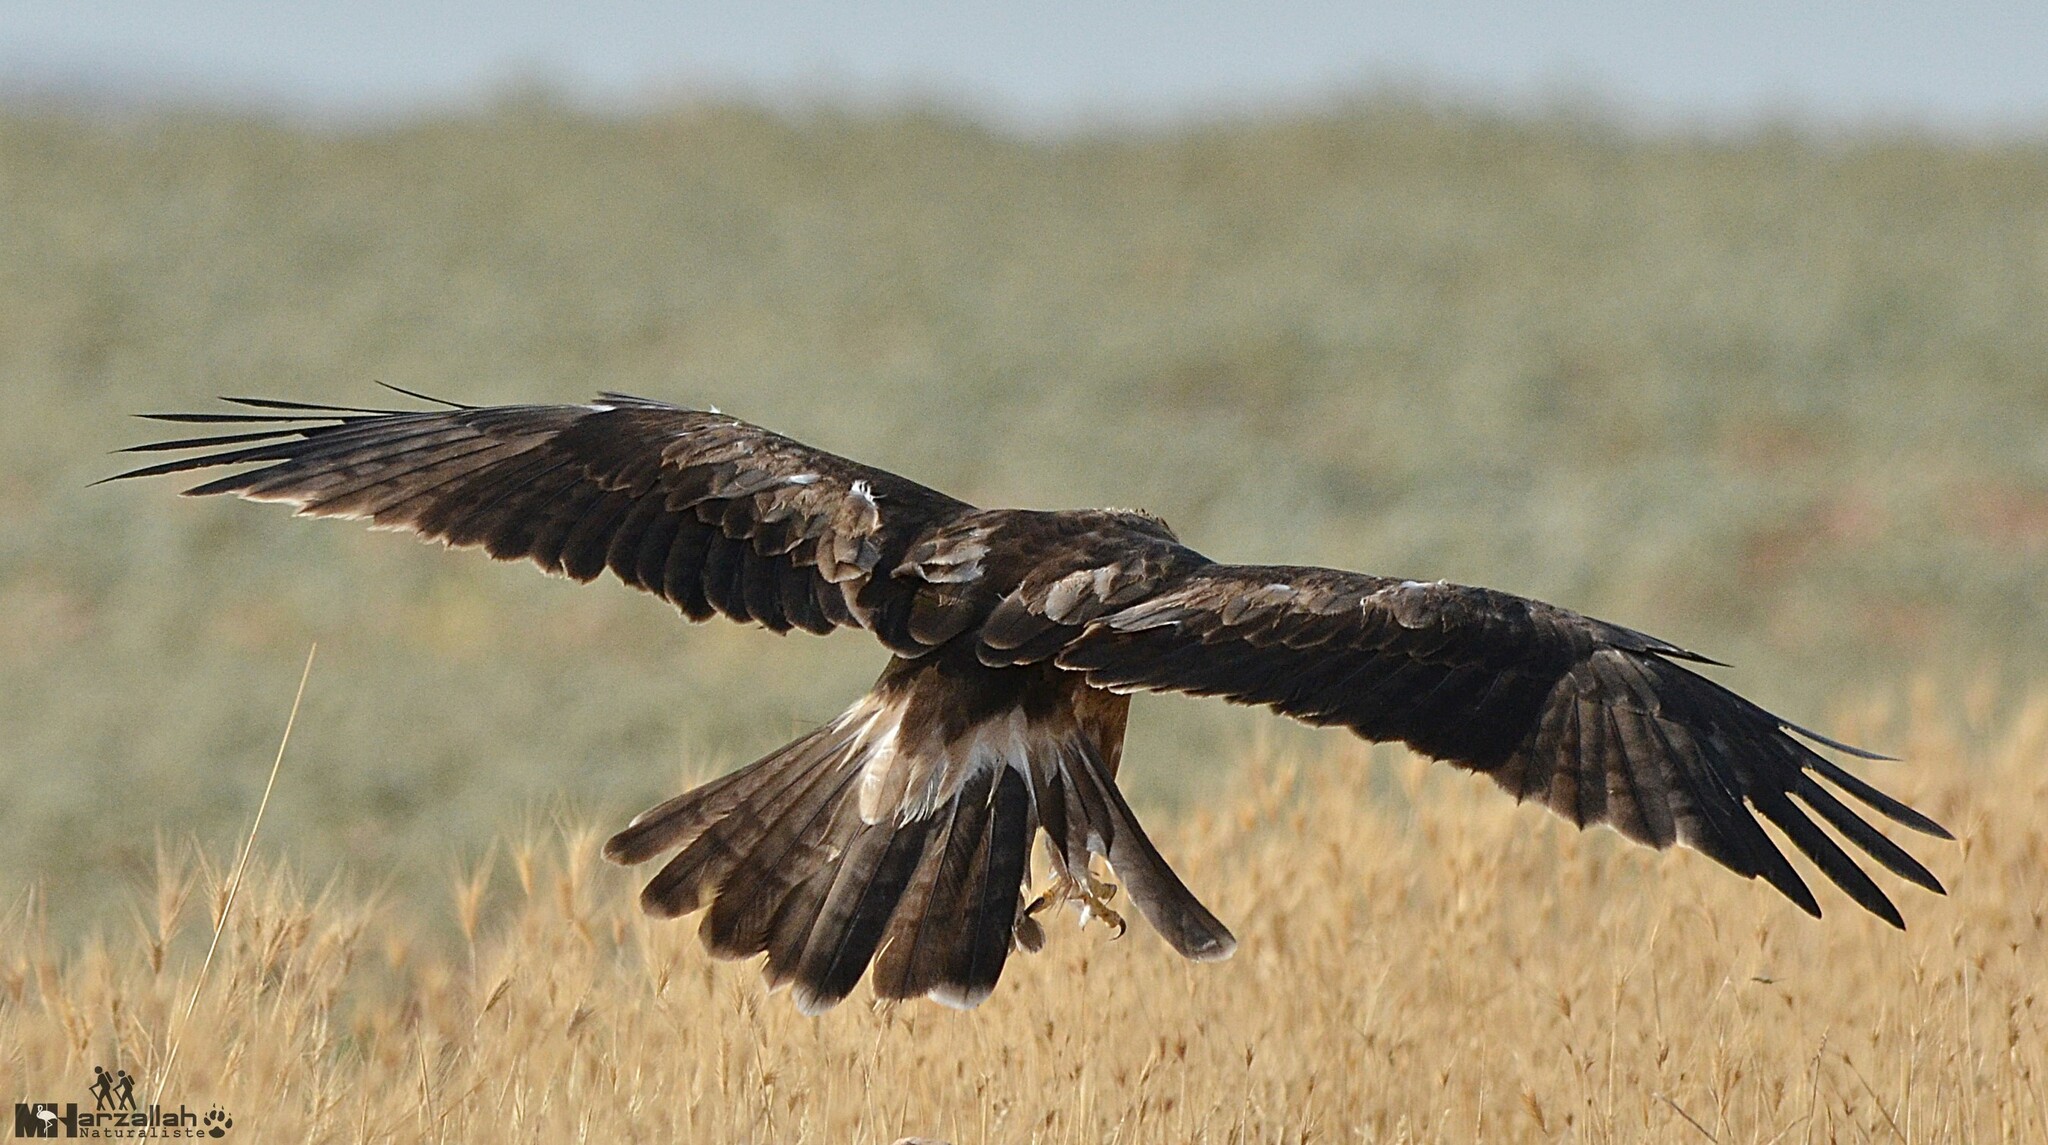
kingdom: Animalia
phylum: Chordata
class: Aves
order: Accipitriformes
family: Accipitridae
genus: Hieraaetus
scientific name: Hieraaetus pennatus
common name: Booted eagle
